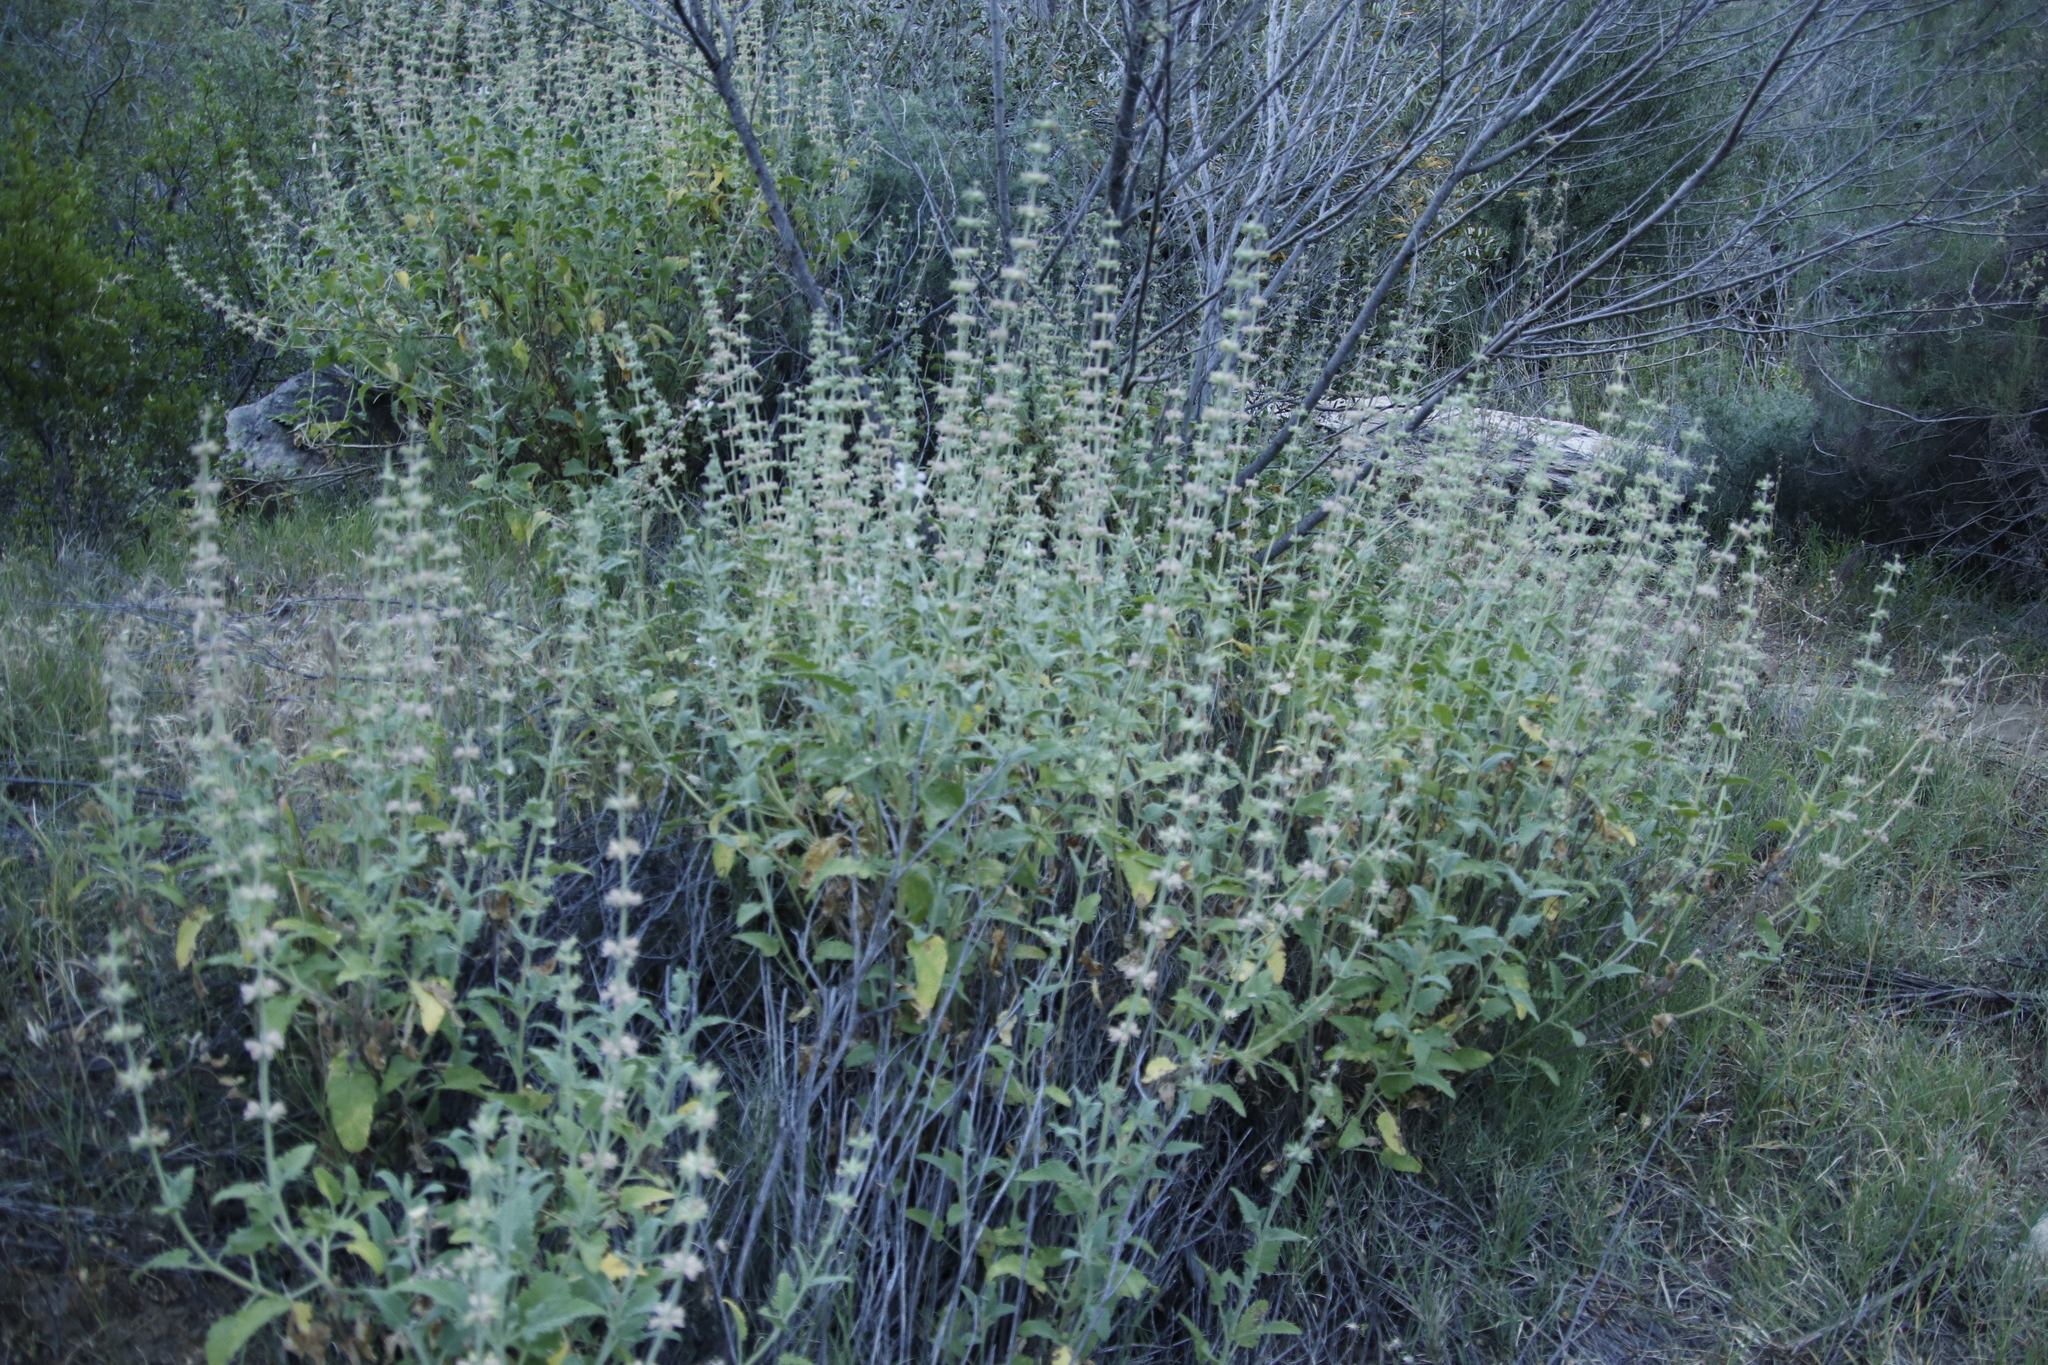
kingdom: Plantae
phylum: Tracheophyta
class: Magnoliopsida
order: Lamiales
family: Lamiaceae
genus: Salvia
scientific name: Salvia disermas
